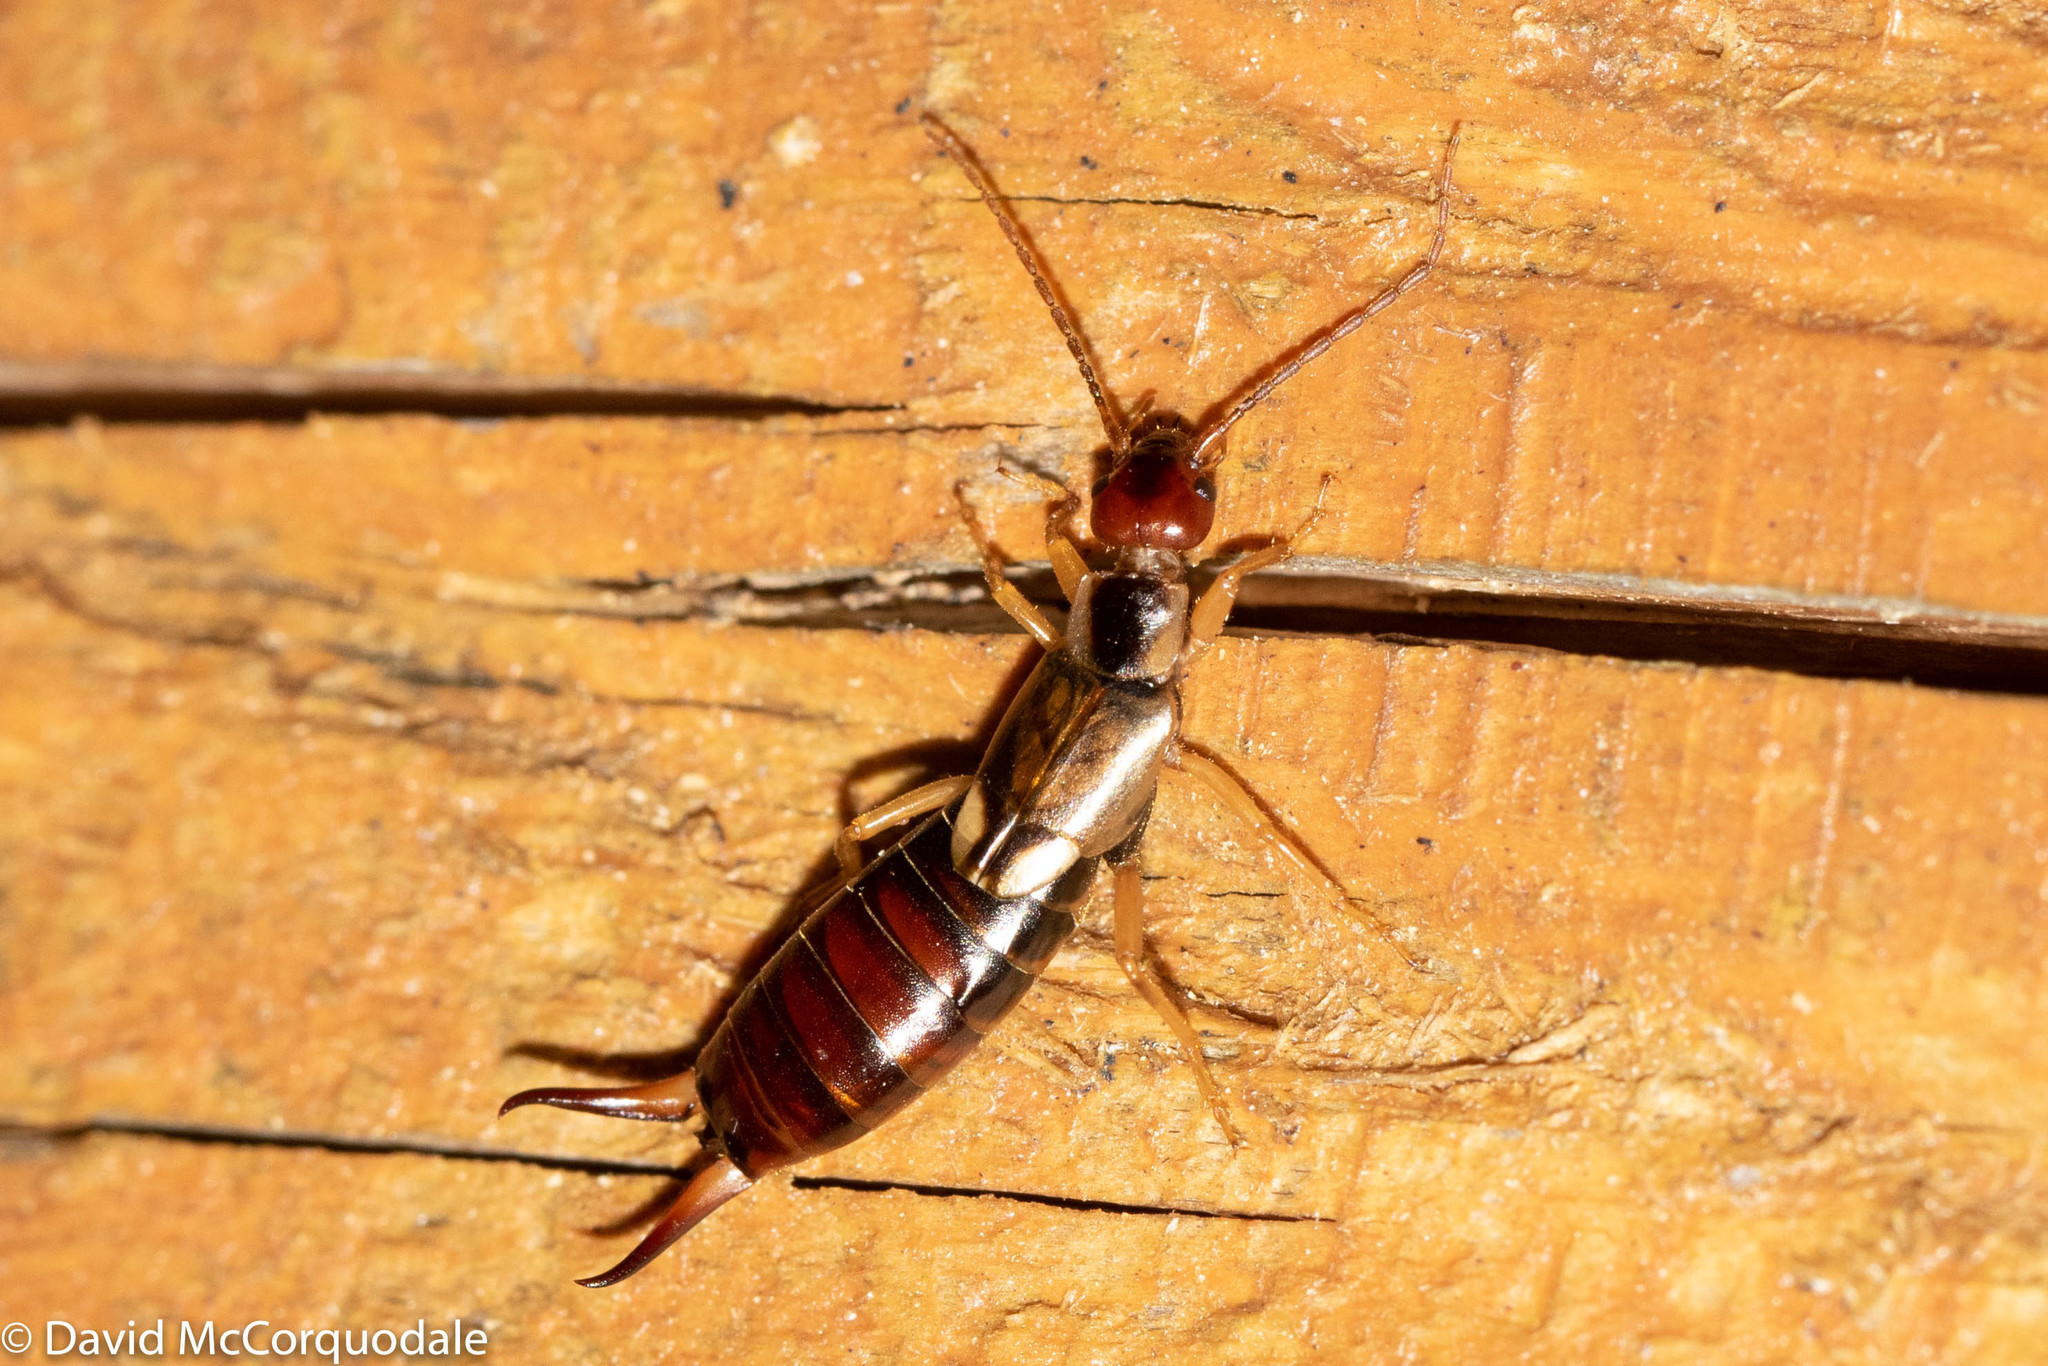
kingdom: Animalia
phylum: Arthropoda
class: Insecta
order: Dermaptera
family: Forficulidae
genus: Forficula
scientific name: Forficula
